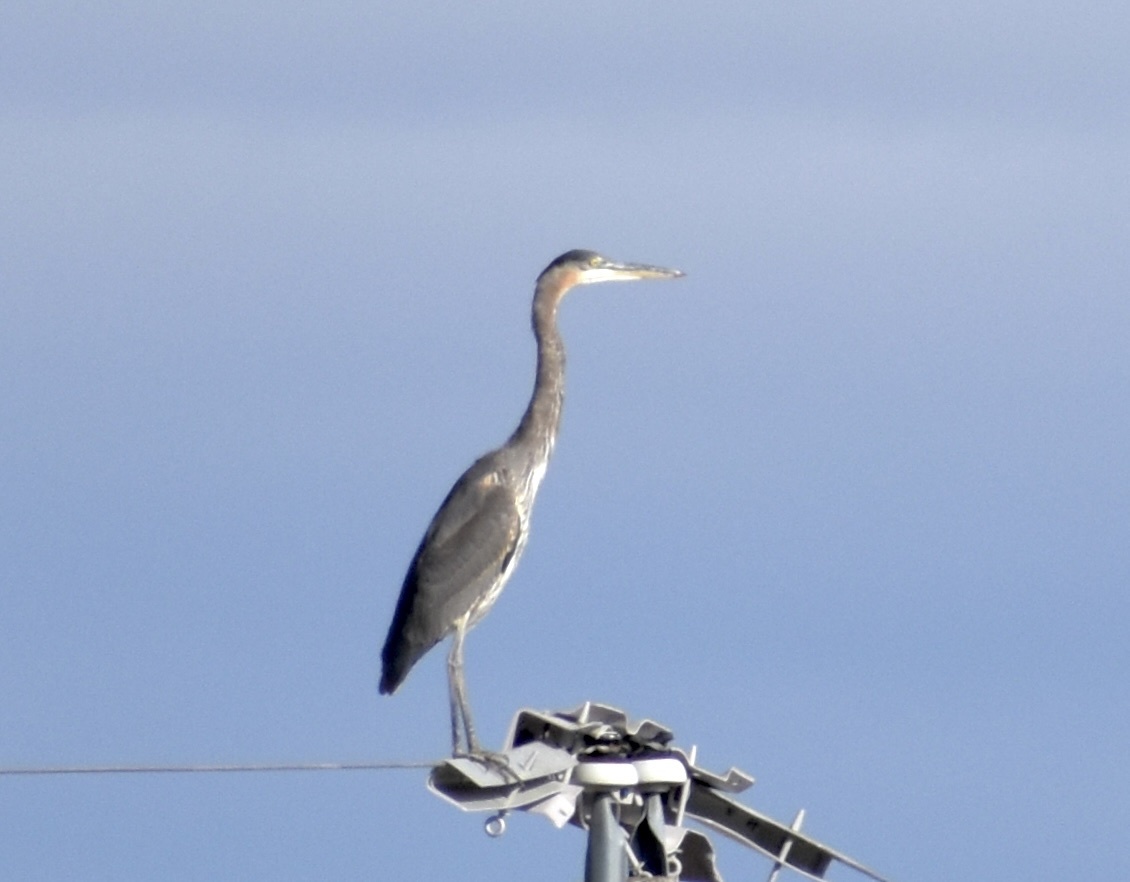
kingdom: Animalia
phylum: Chordata
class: Aves
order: Pelecaniformes
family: Ardeidae
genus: Ardea
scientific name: Ardea herodias
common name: Great blue heron
